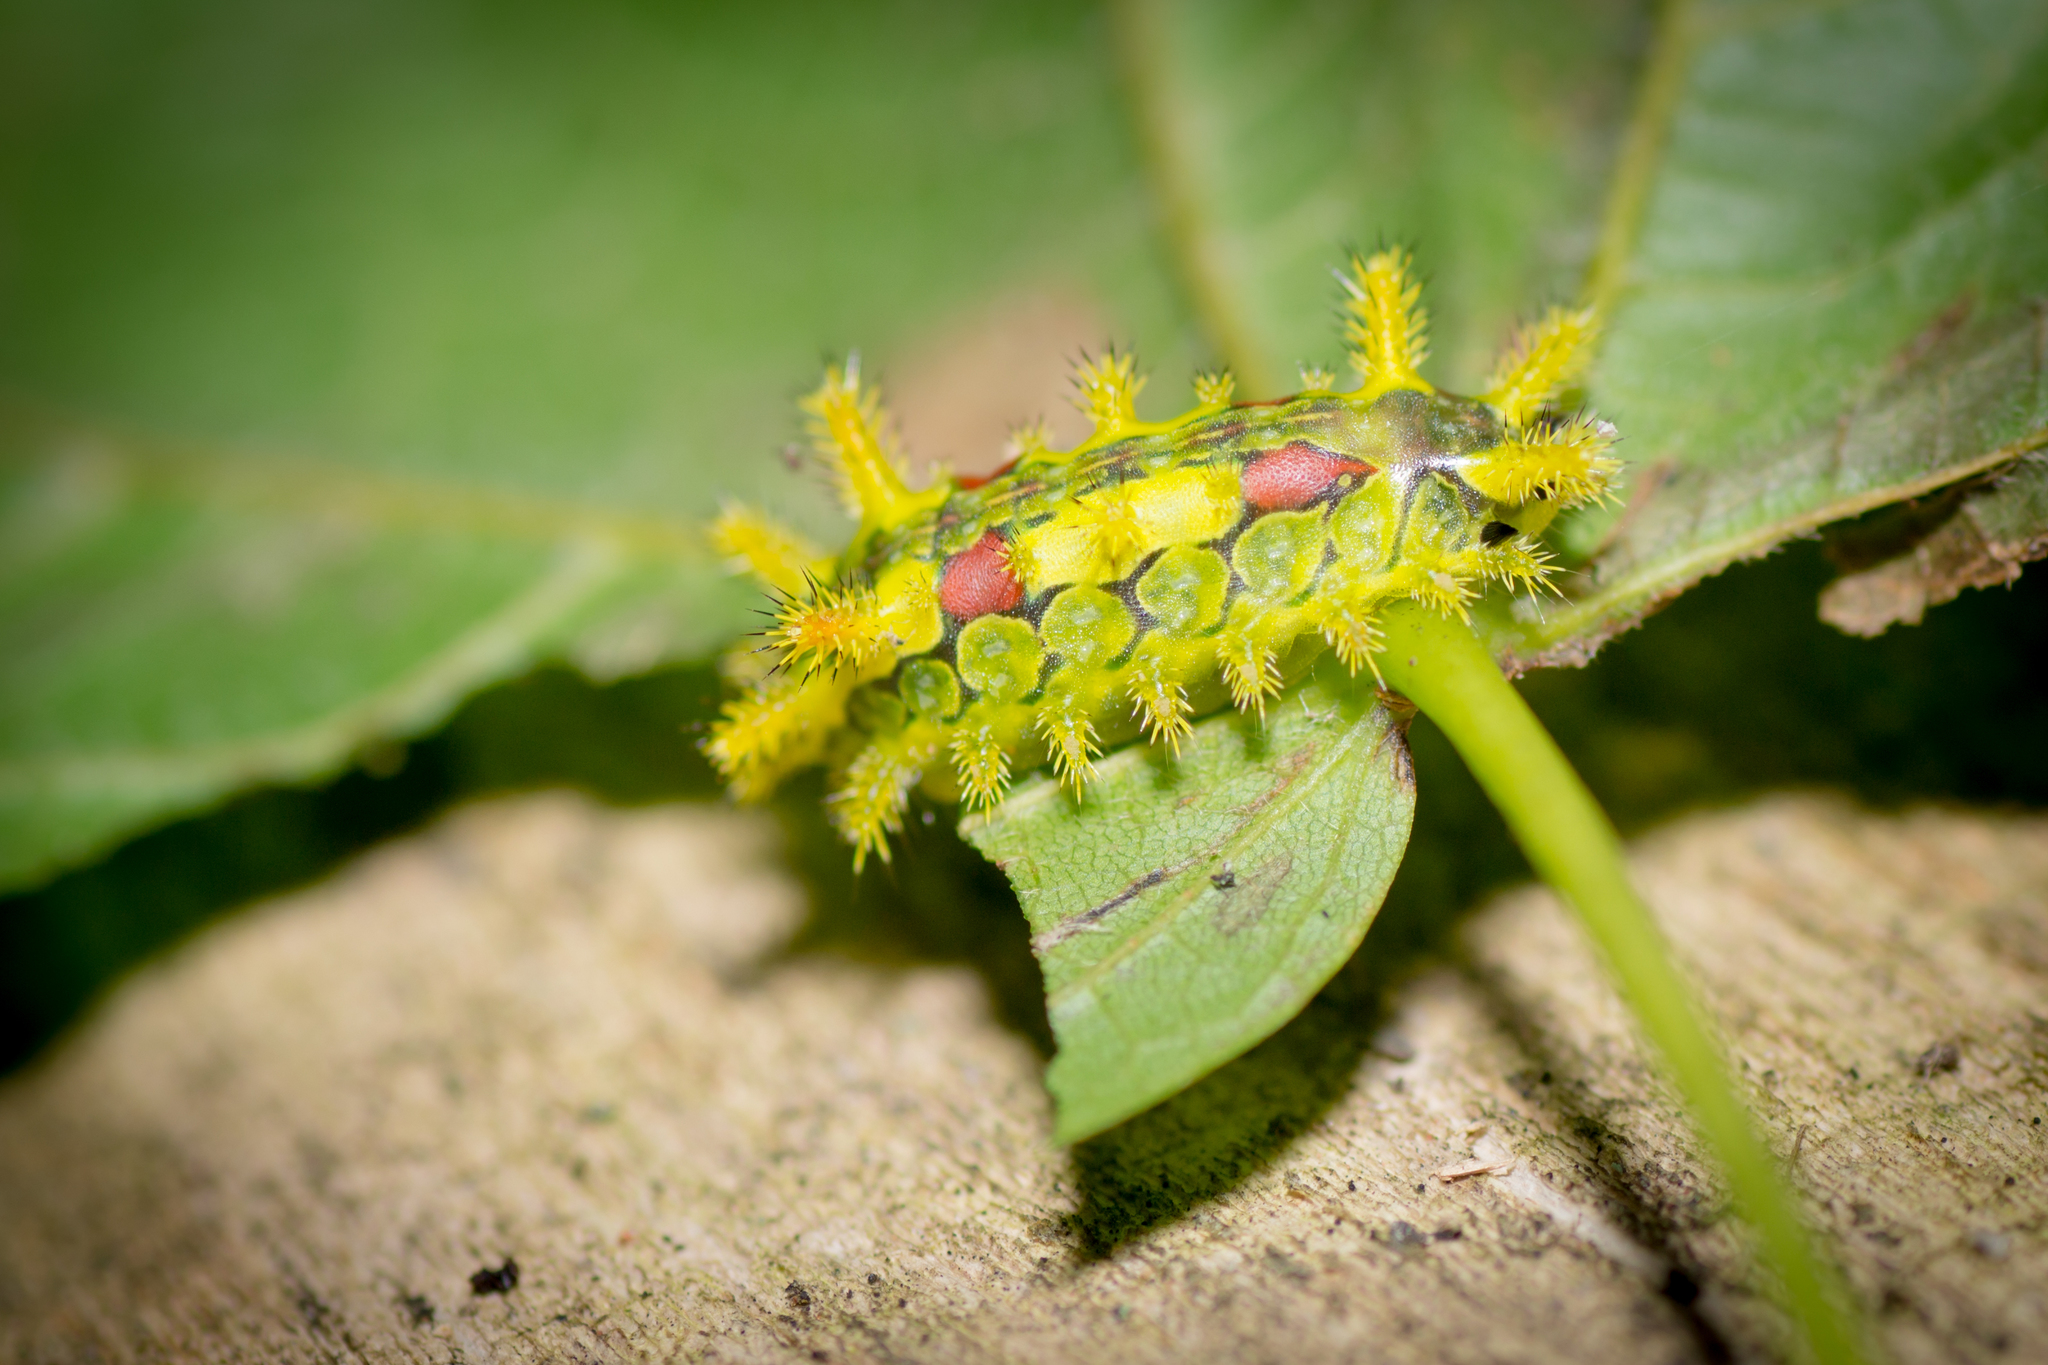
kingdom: Animalia
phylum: Arthropoda
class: Insecta
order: Lepidoptera
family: Limacodidae
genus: Euclea
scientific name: Euclea delphinii
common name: Spiny oak-slug moth
